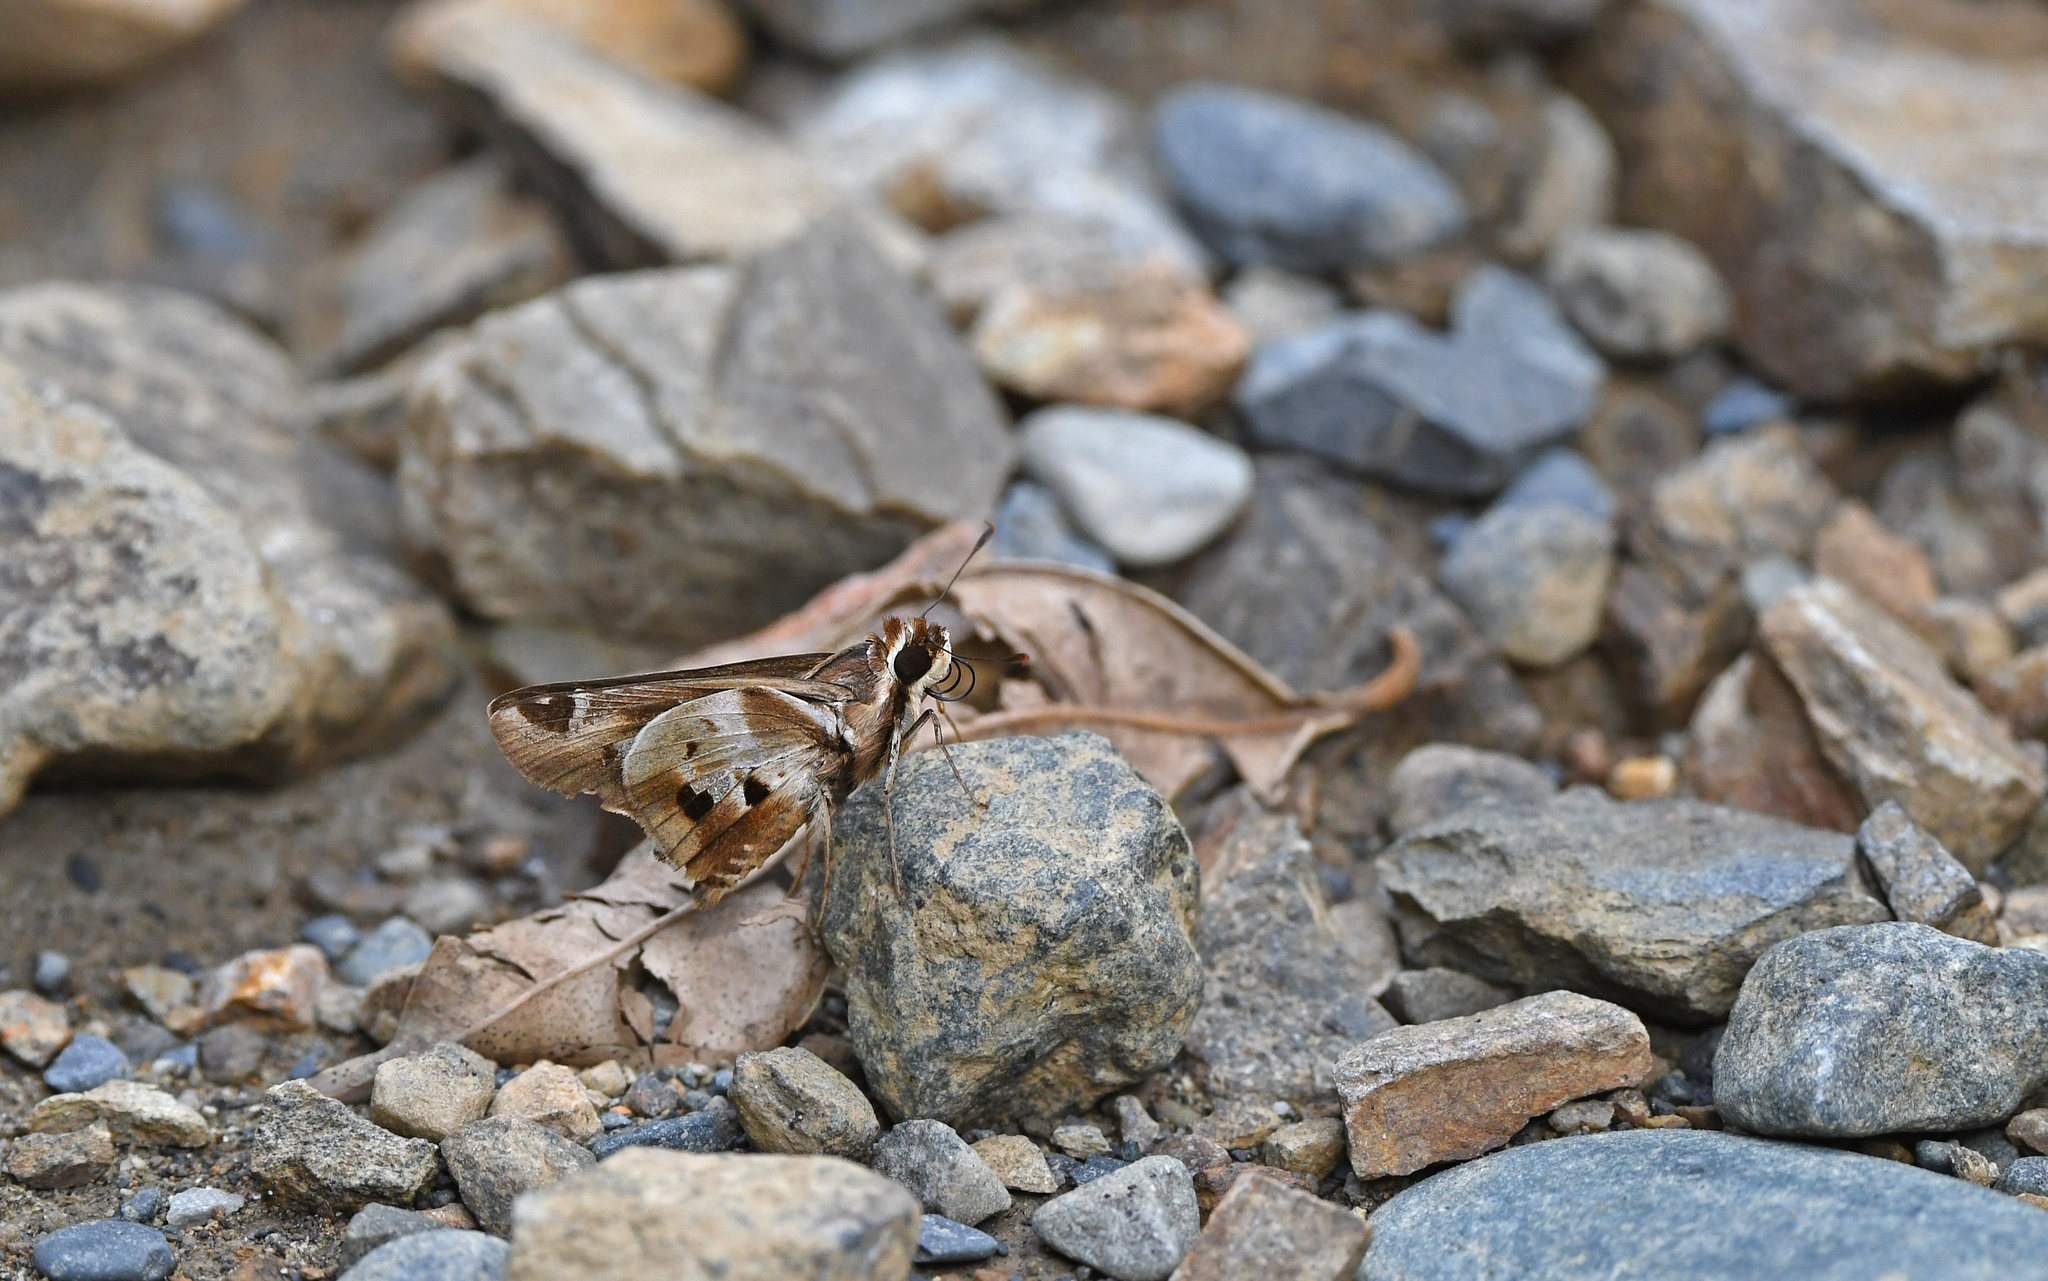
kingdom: Animalia
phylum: Arthropoda
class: Insecta
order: Lepidoptera
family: Hesperiidae
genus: Thespieus
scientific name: Thespieus dalman
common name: Chalk-marked skipper
